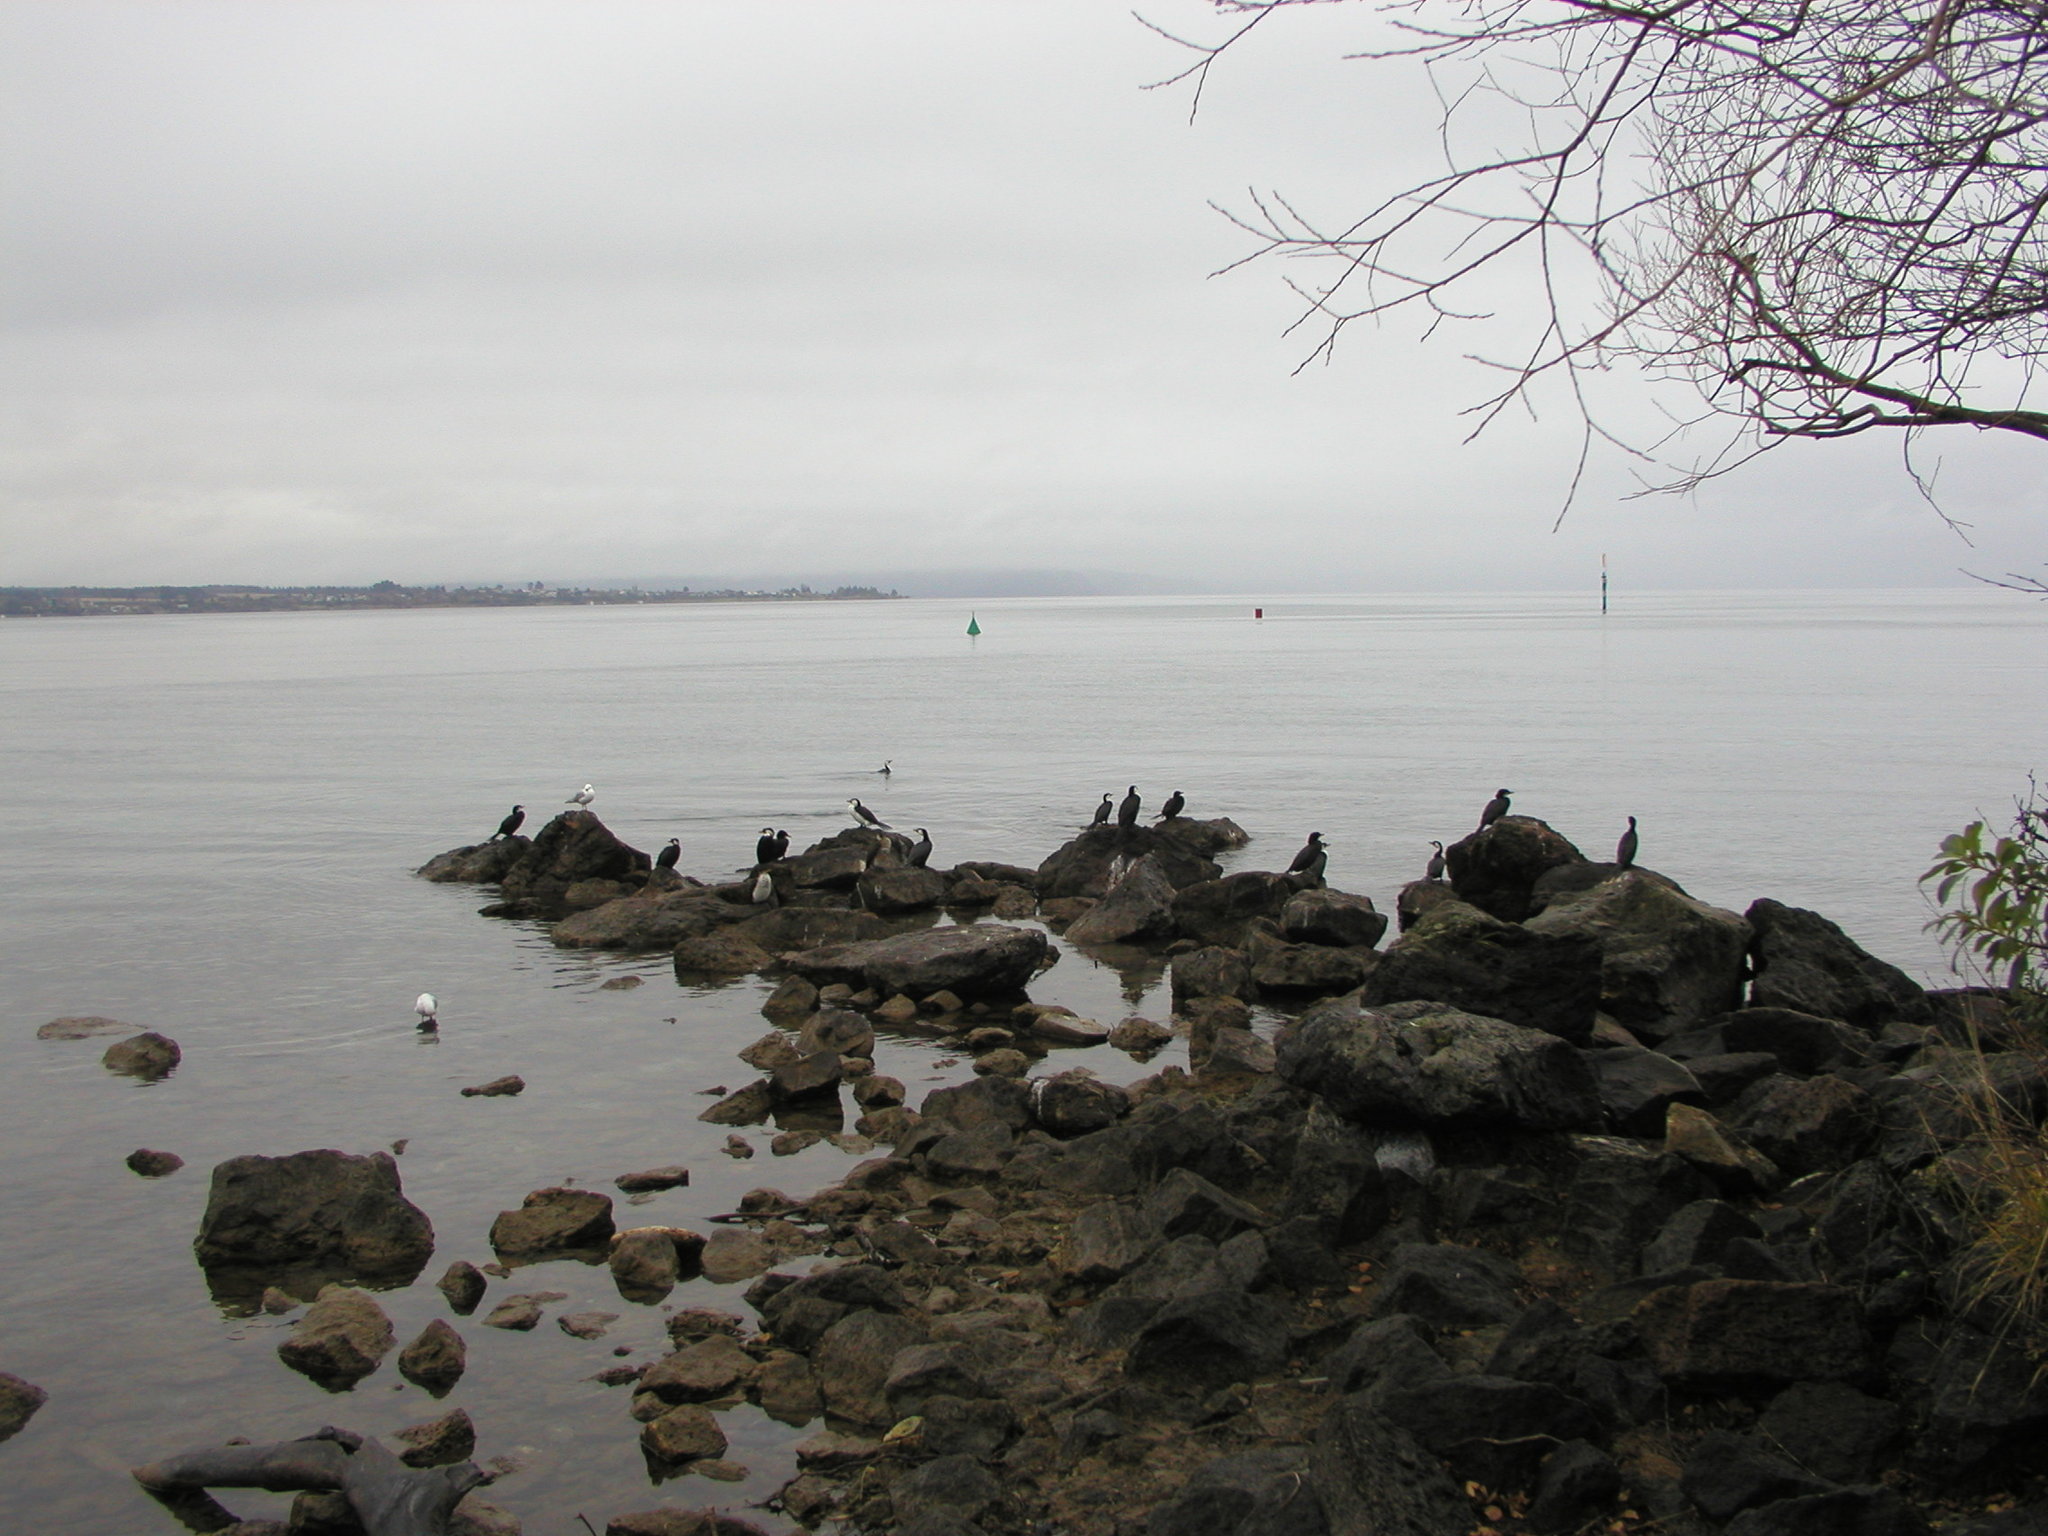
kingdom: Animalia
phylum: Chordata
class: Aves
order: Suliformes
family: Phalacrocoracidae
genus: Microcarbo
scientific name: Microcarbo melanoleucos
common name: Little pied cormorant
